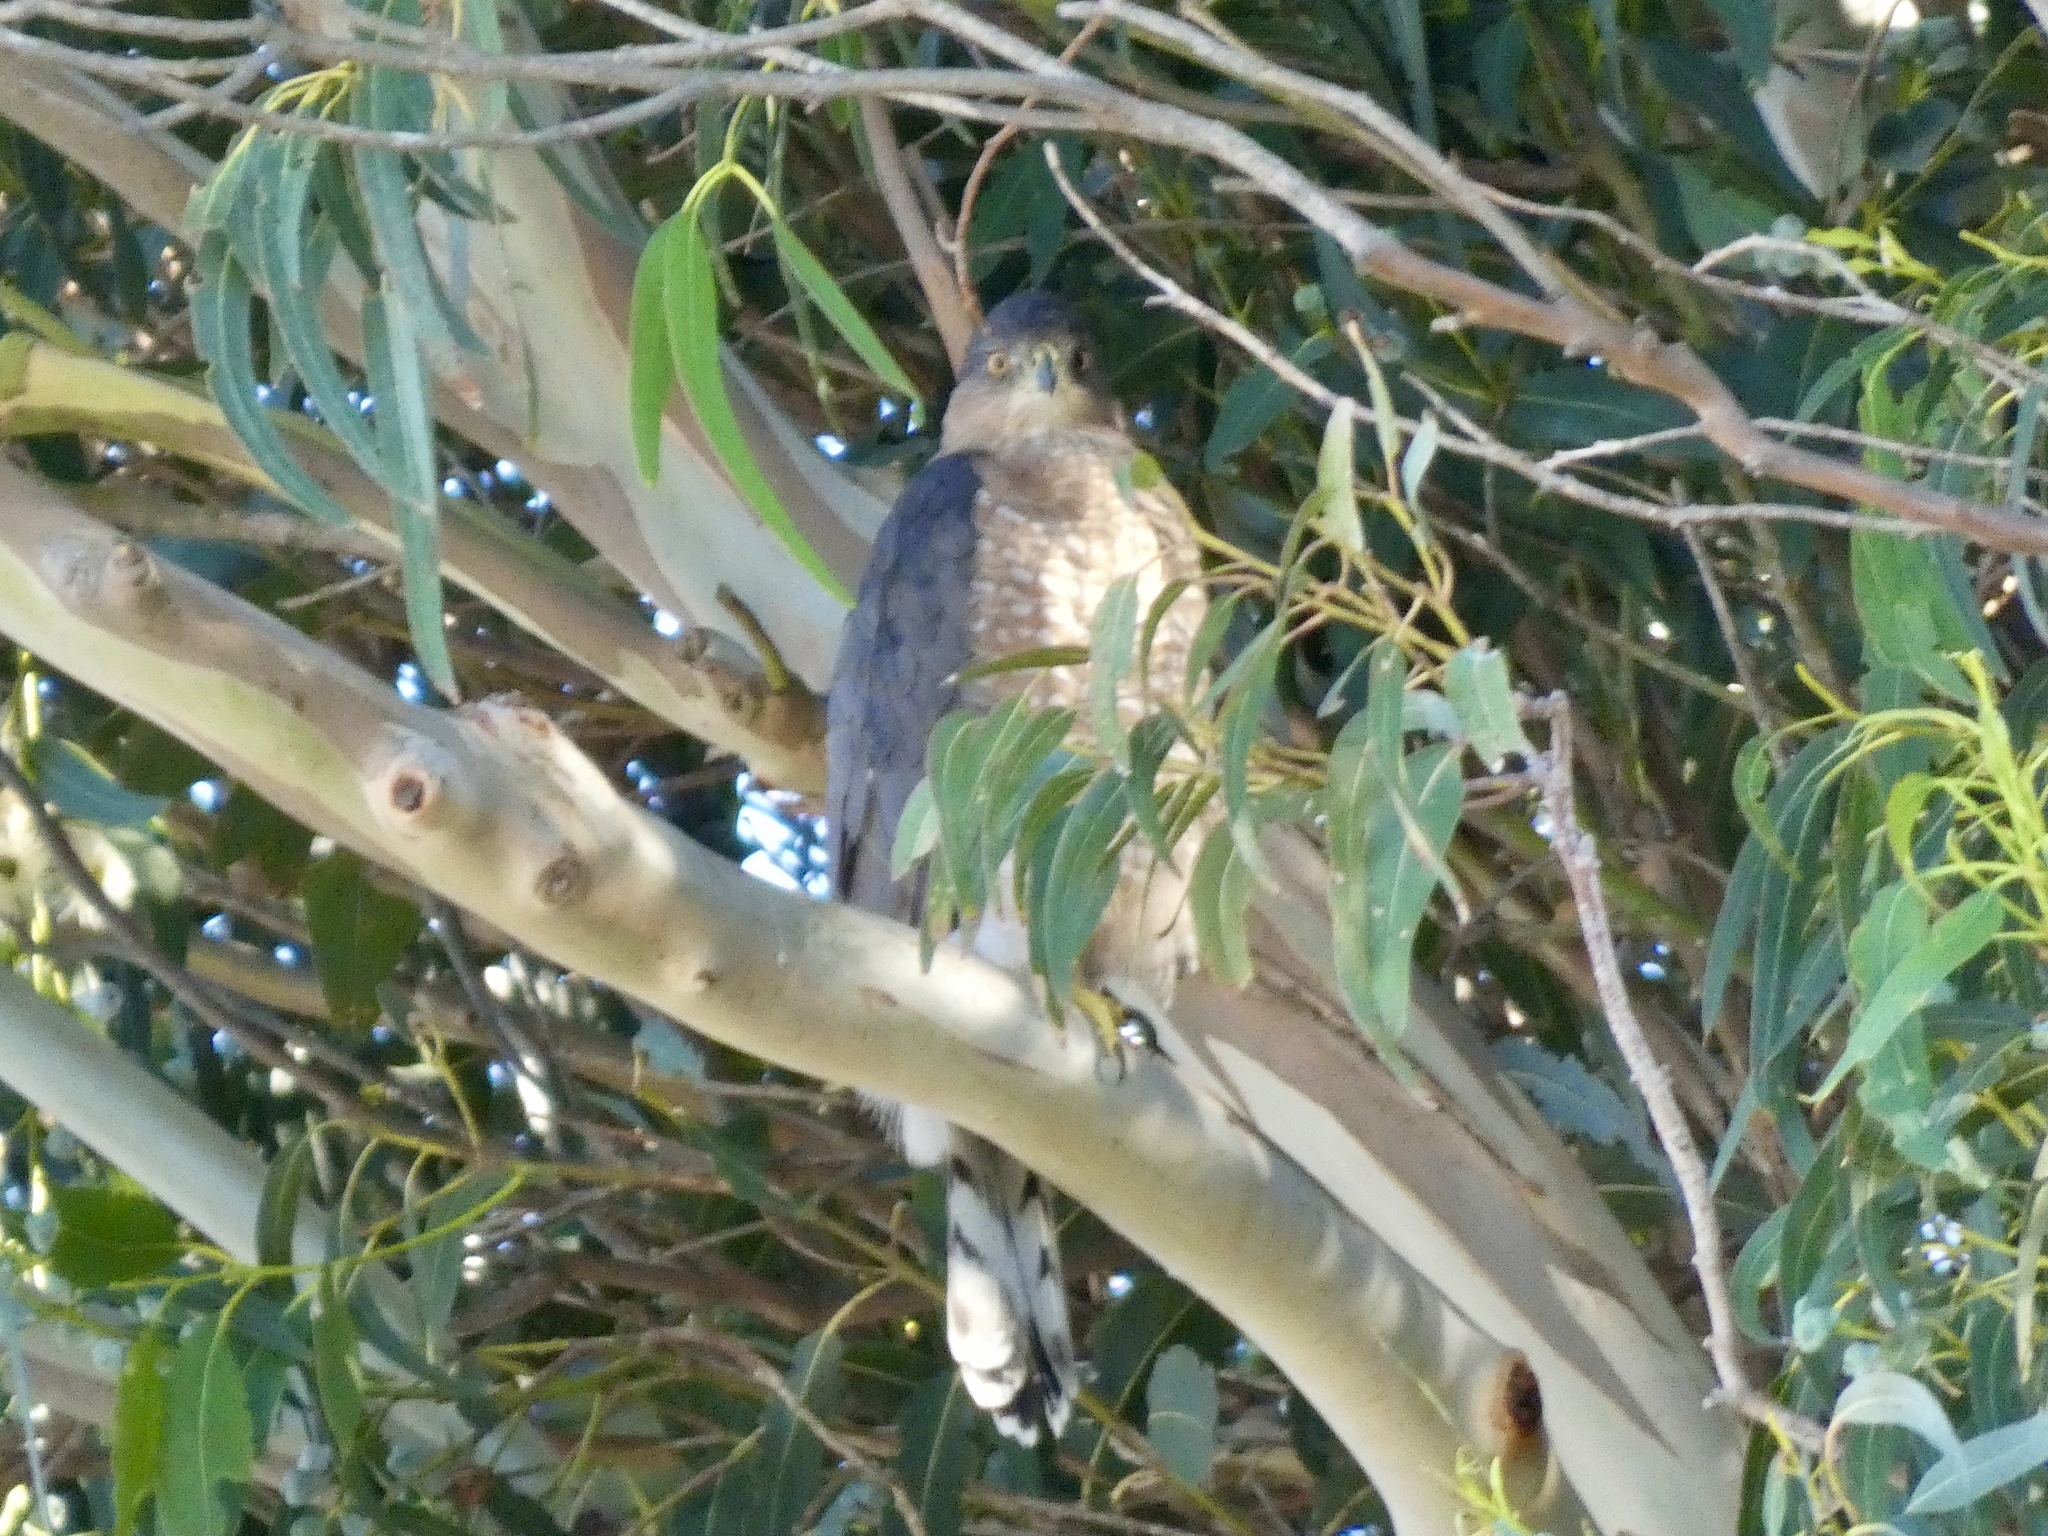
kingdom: Animalia
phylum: Chordata
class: Aves
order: Accipitriformes
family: Accipitridae
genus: Accipiter
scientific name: Accipiter cooperii
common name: Cooper's hawk
